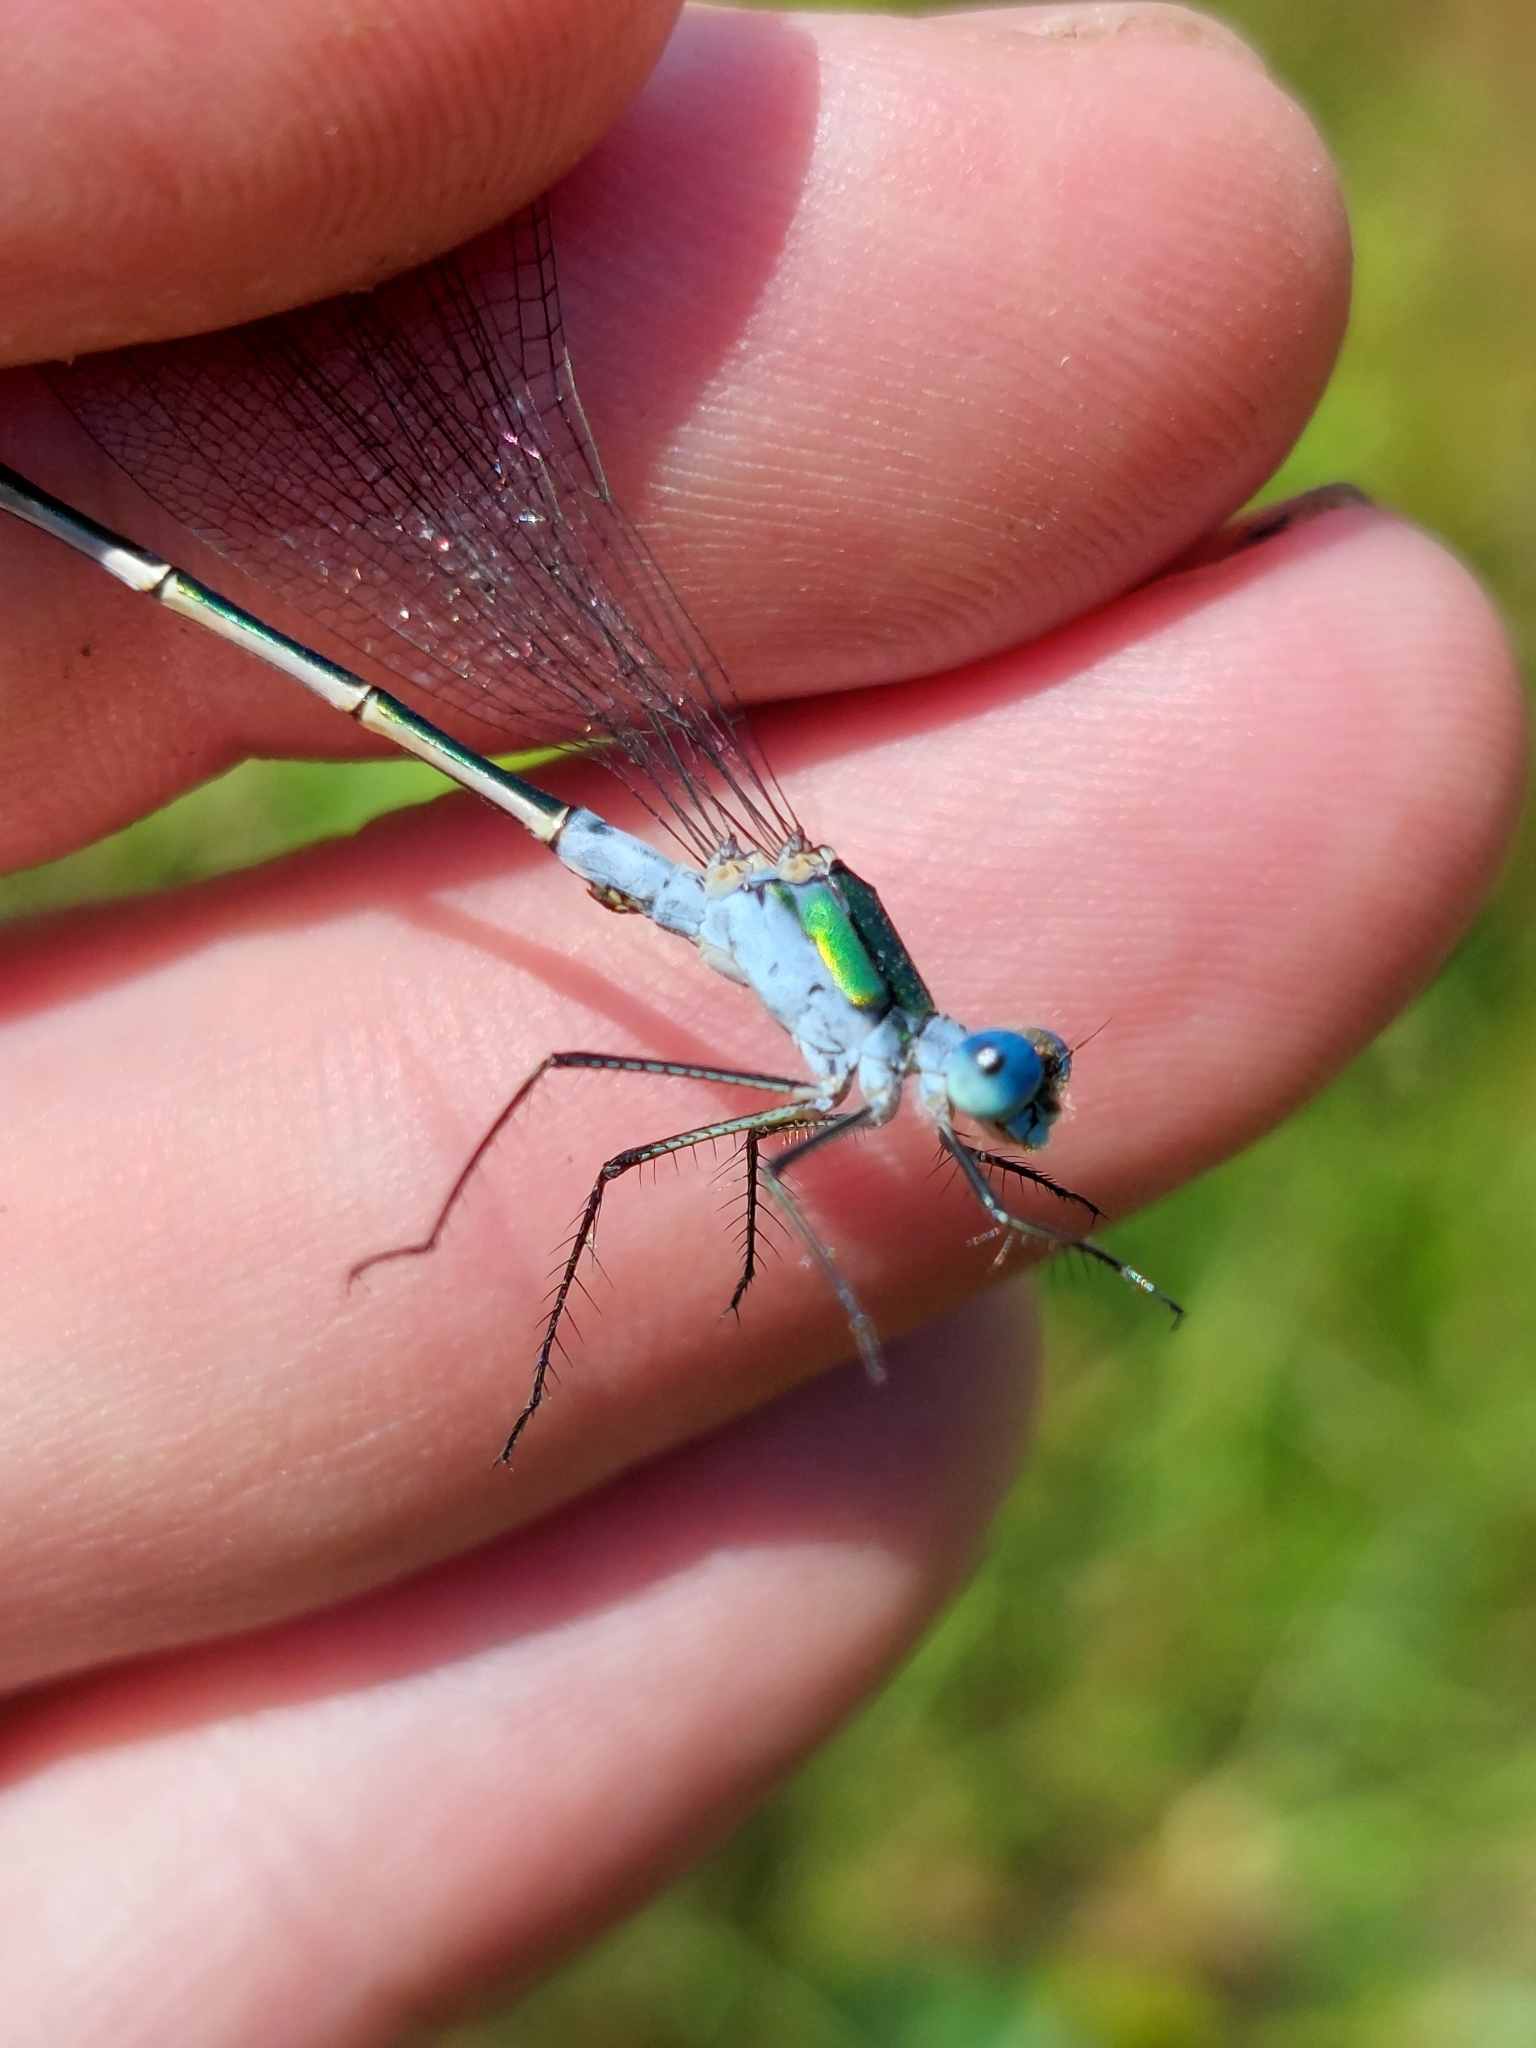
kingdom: Animalia
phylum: Arthropoda
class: Insecta
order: Odonata
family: Lestidae
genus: Lestes
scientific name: Lestes sponsa
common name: Common spreadwing
